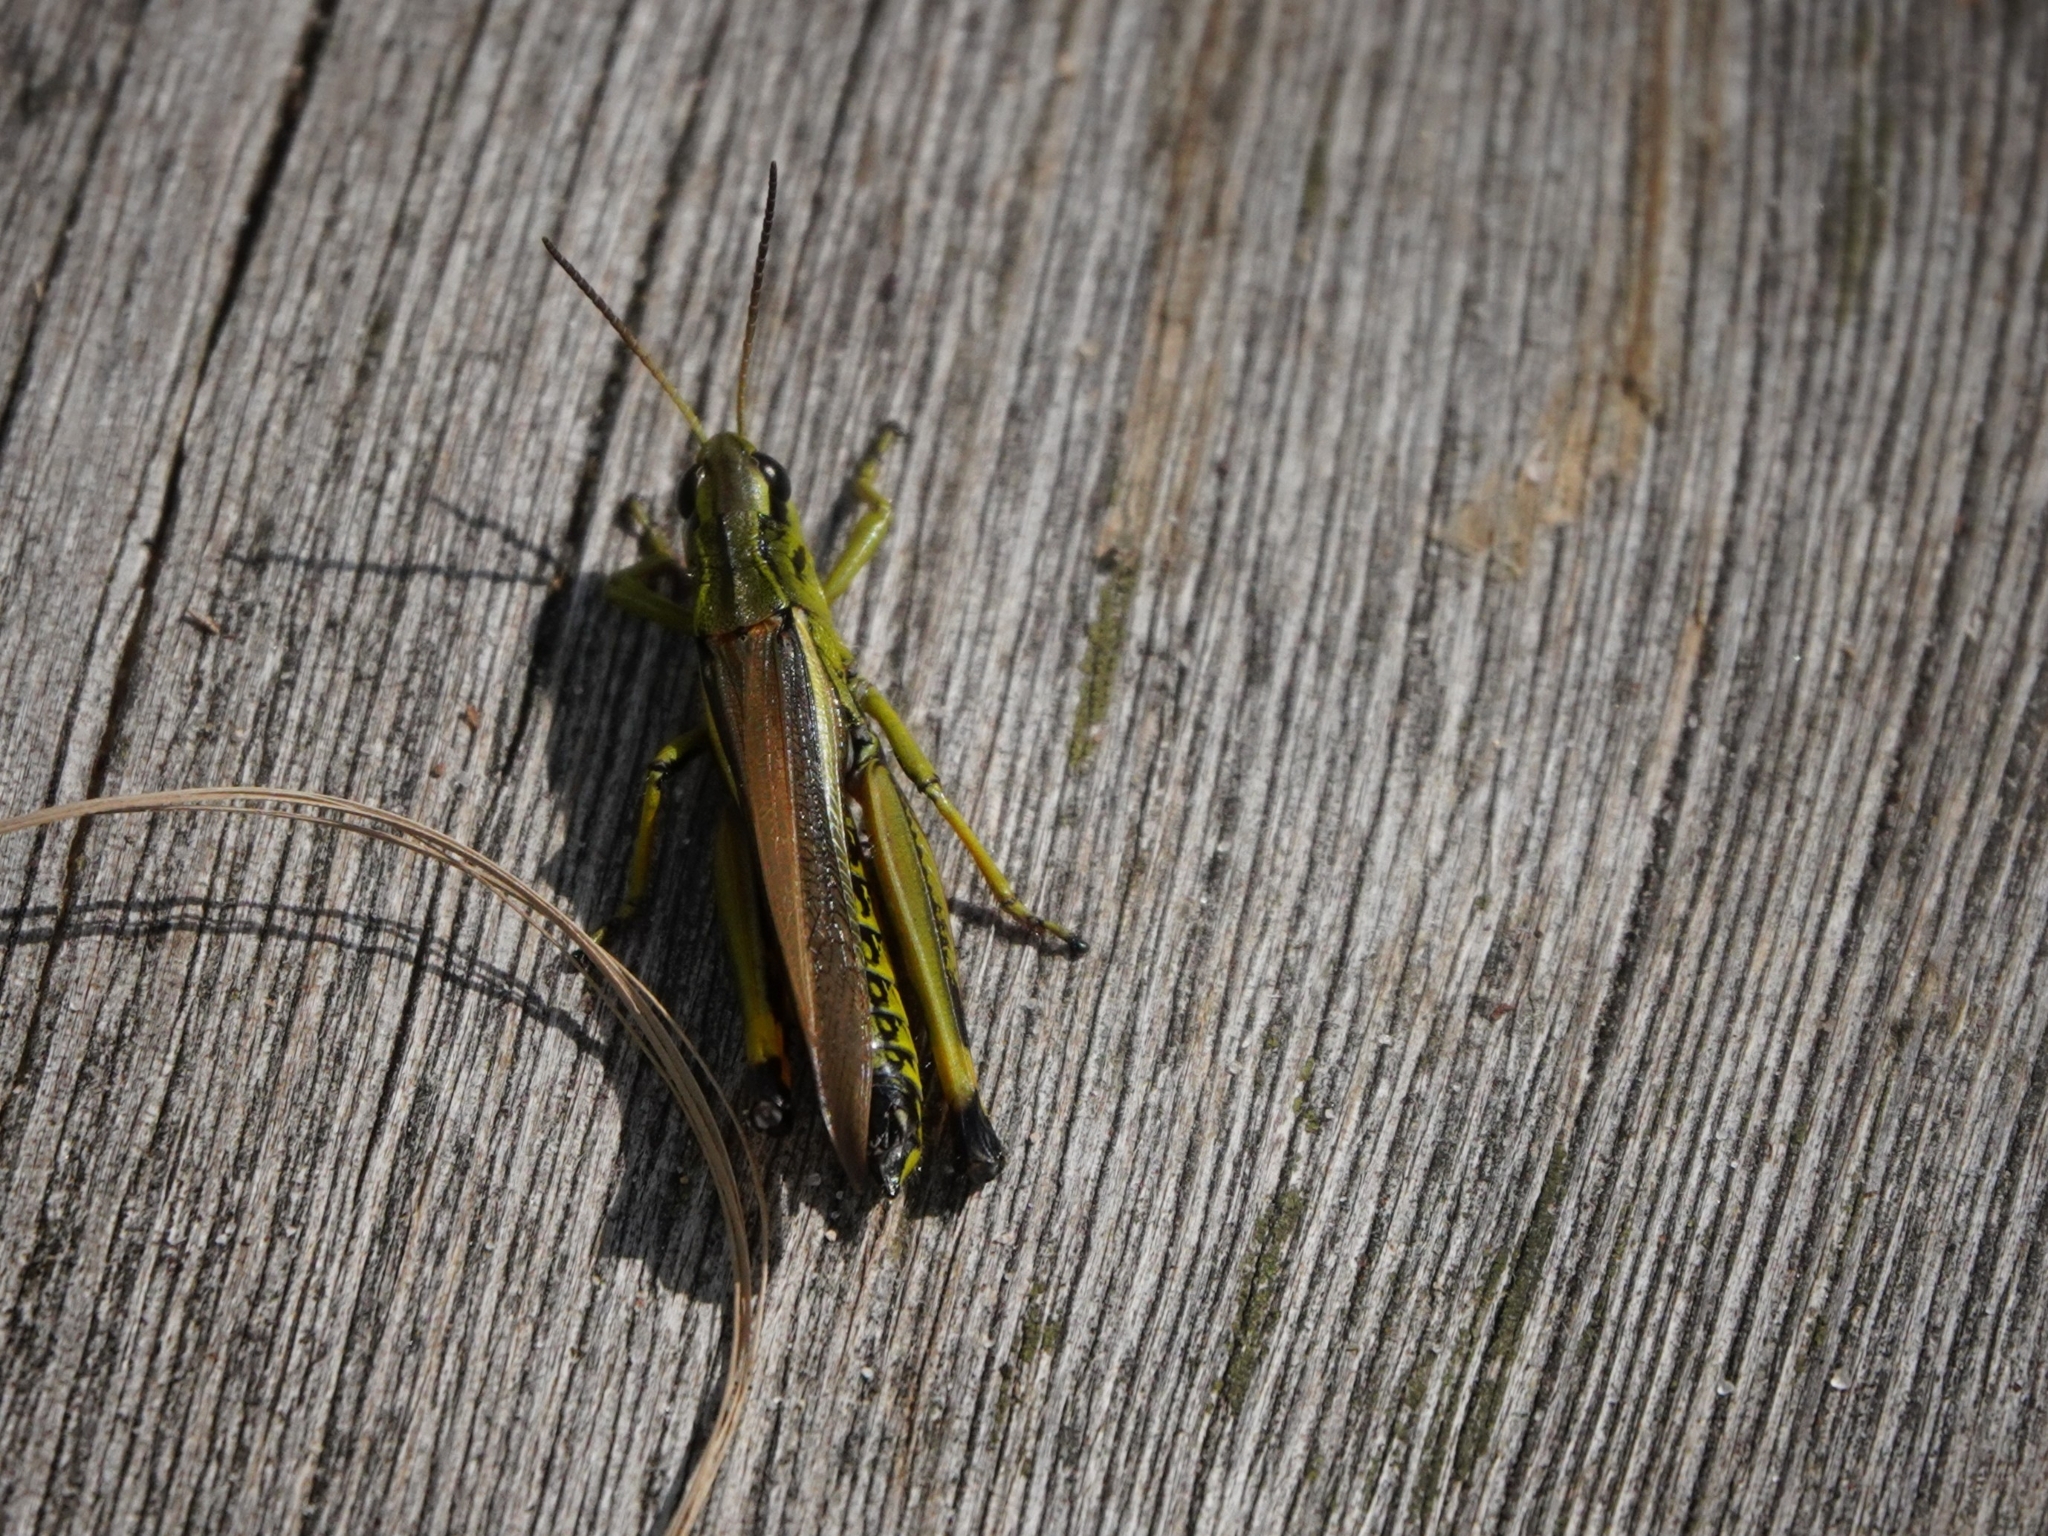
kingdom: Animalia
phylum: Arthropoda
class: Insecta
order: Orthoptera
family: Acrididae
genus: Stethophyma
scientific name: Stethophyma grossum
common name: Large marsh grasshopper
